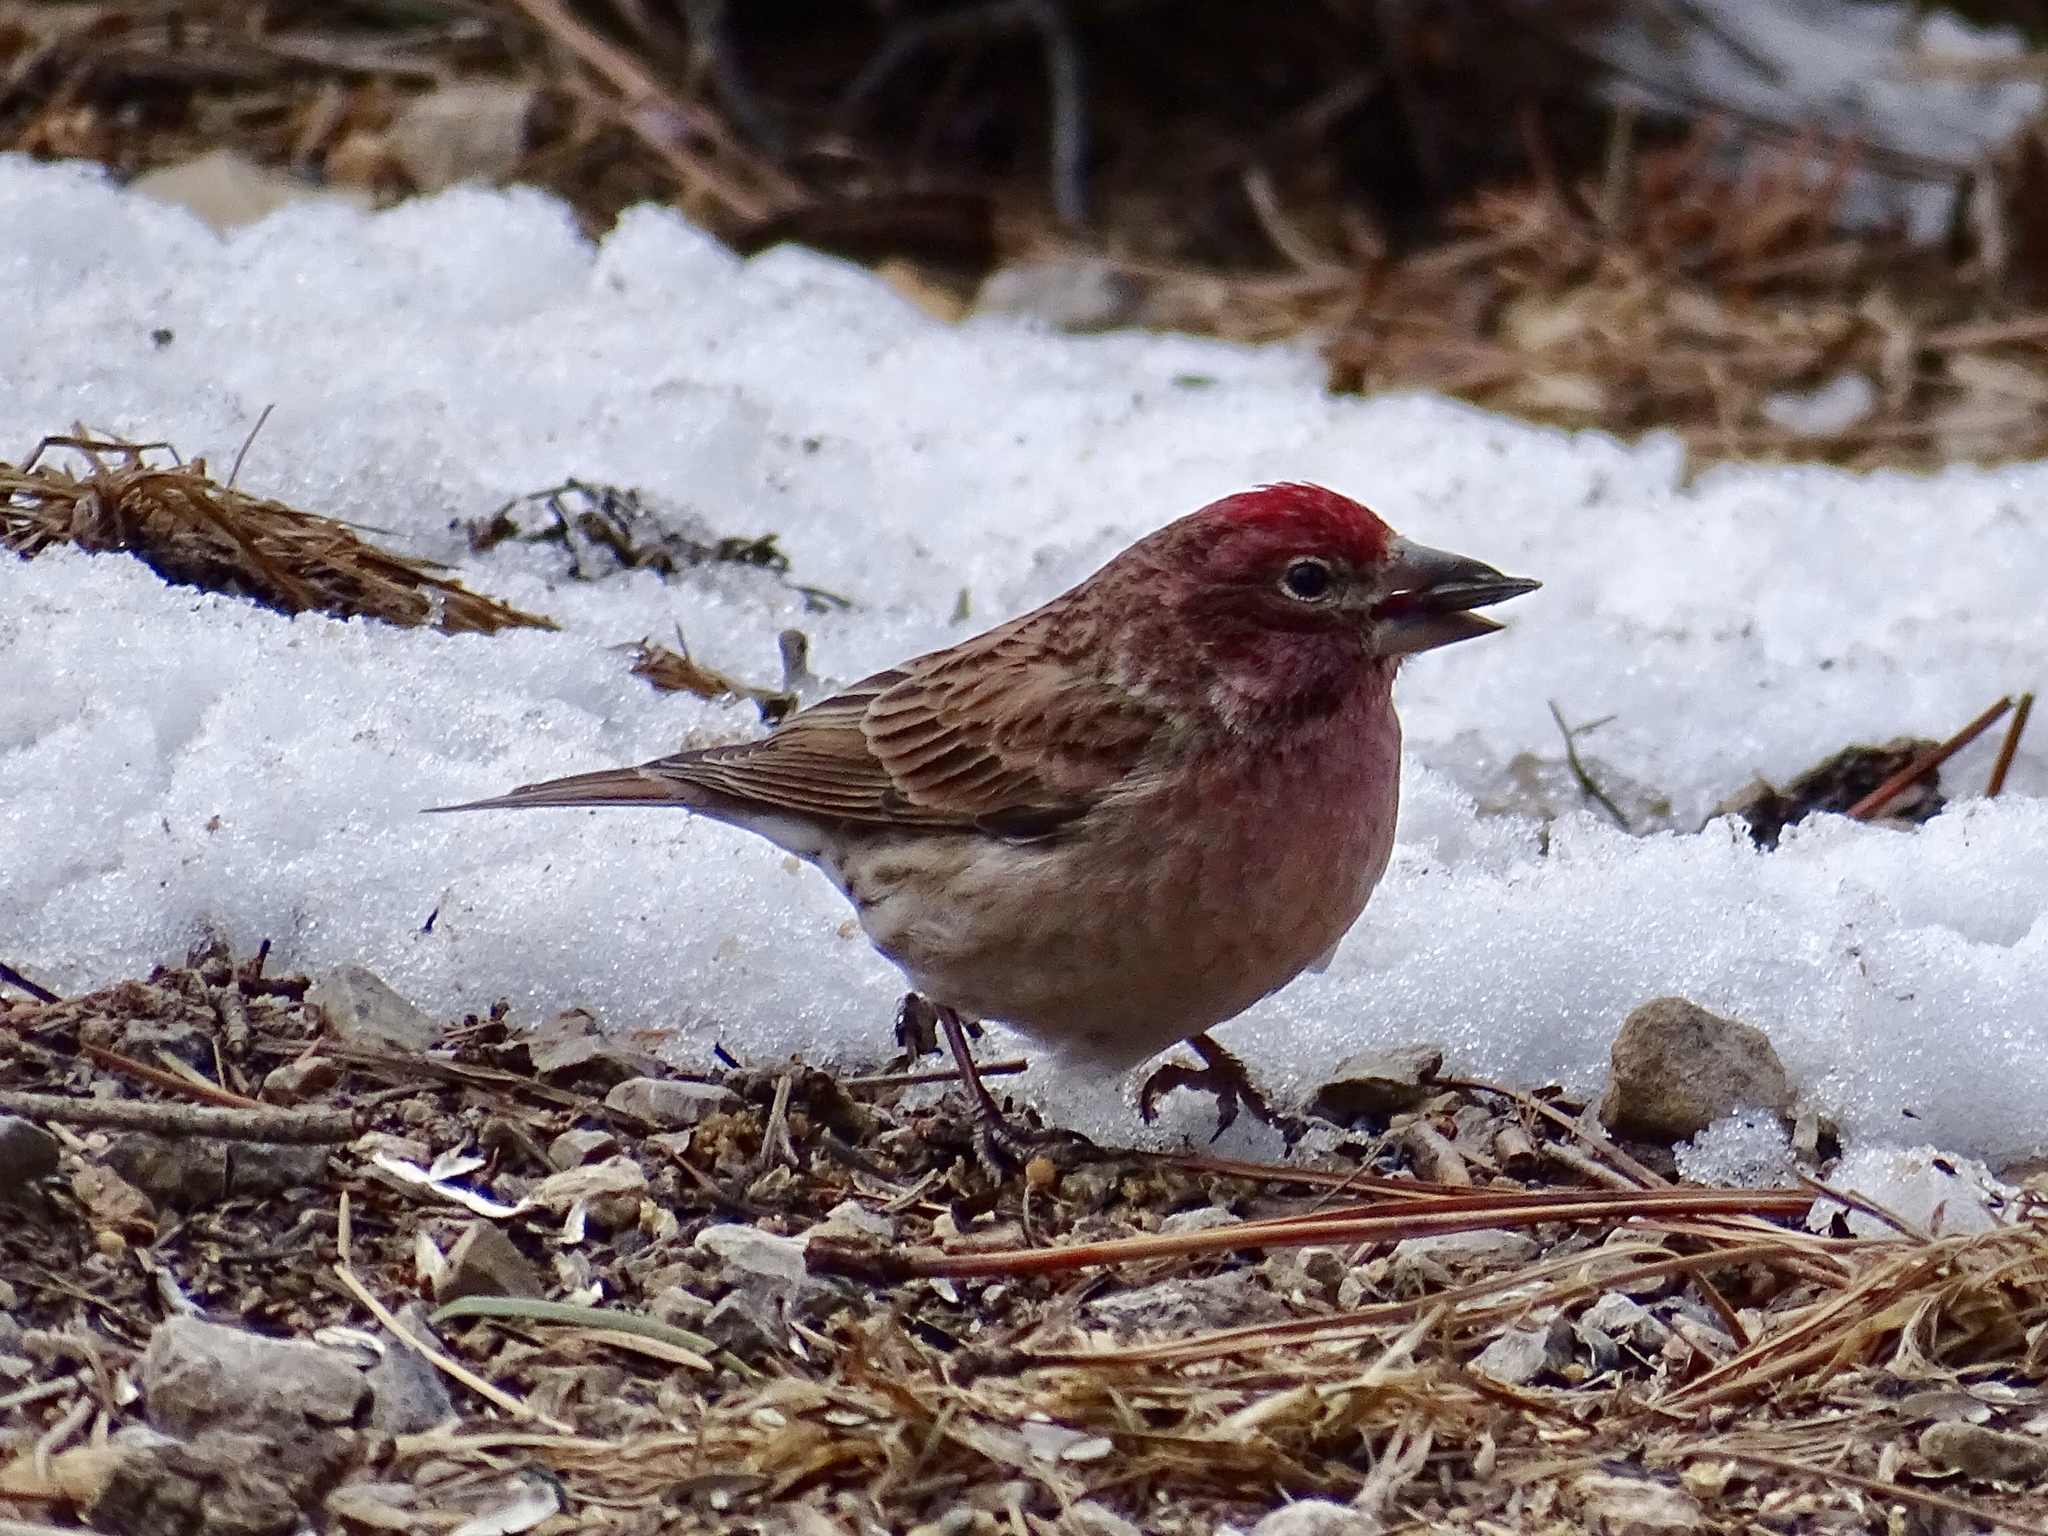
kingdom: Animalia
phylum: Chordata
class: Aves
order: Passeriformes
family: Fringillidae
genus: Haemorhous
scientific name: Haemorhous cassinii
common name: Cassin's finch
